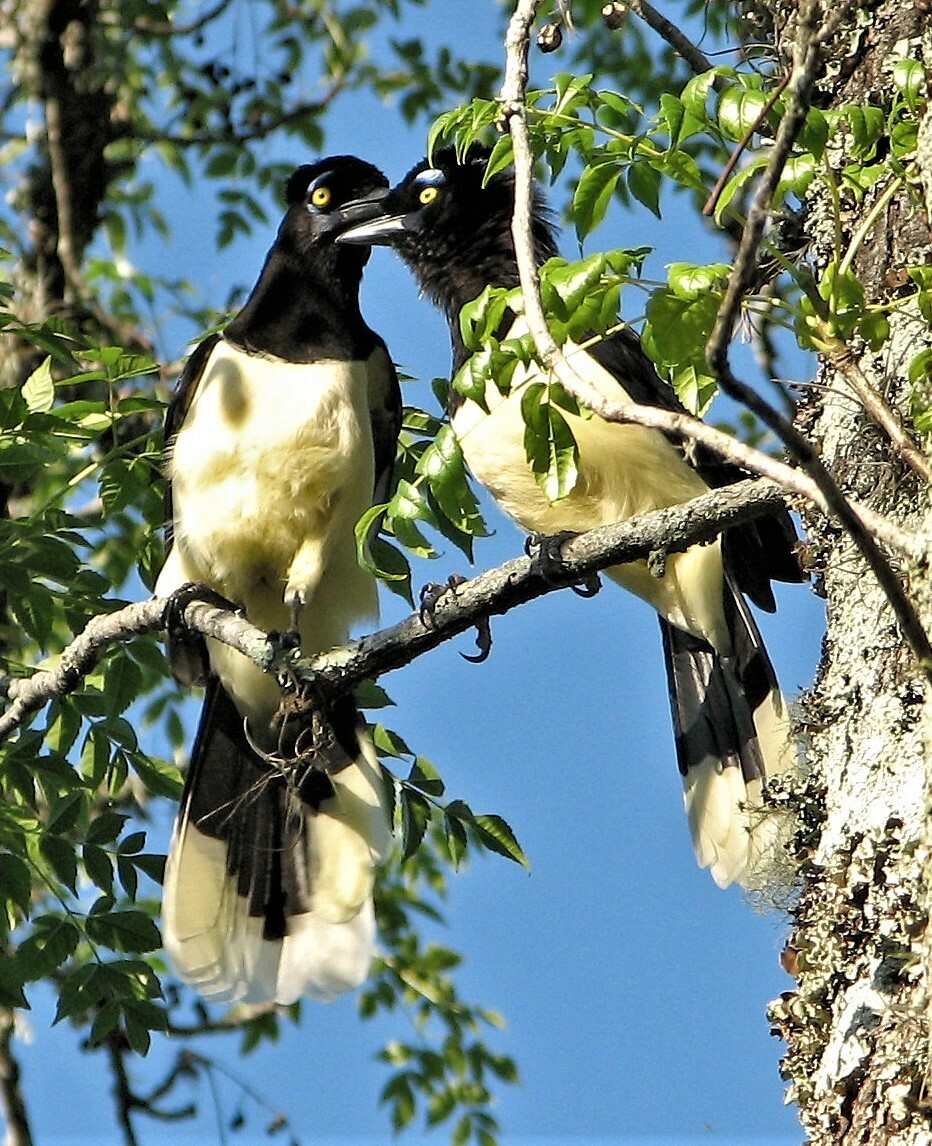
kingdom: Animalia
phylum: Chordata
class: Aves
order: Passeriformes
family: Corvidae
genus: Cyanocorax
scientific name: Cyanocorax chrysops
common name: Plush-crested jay
